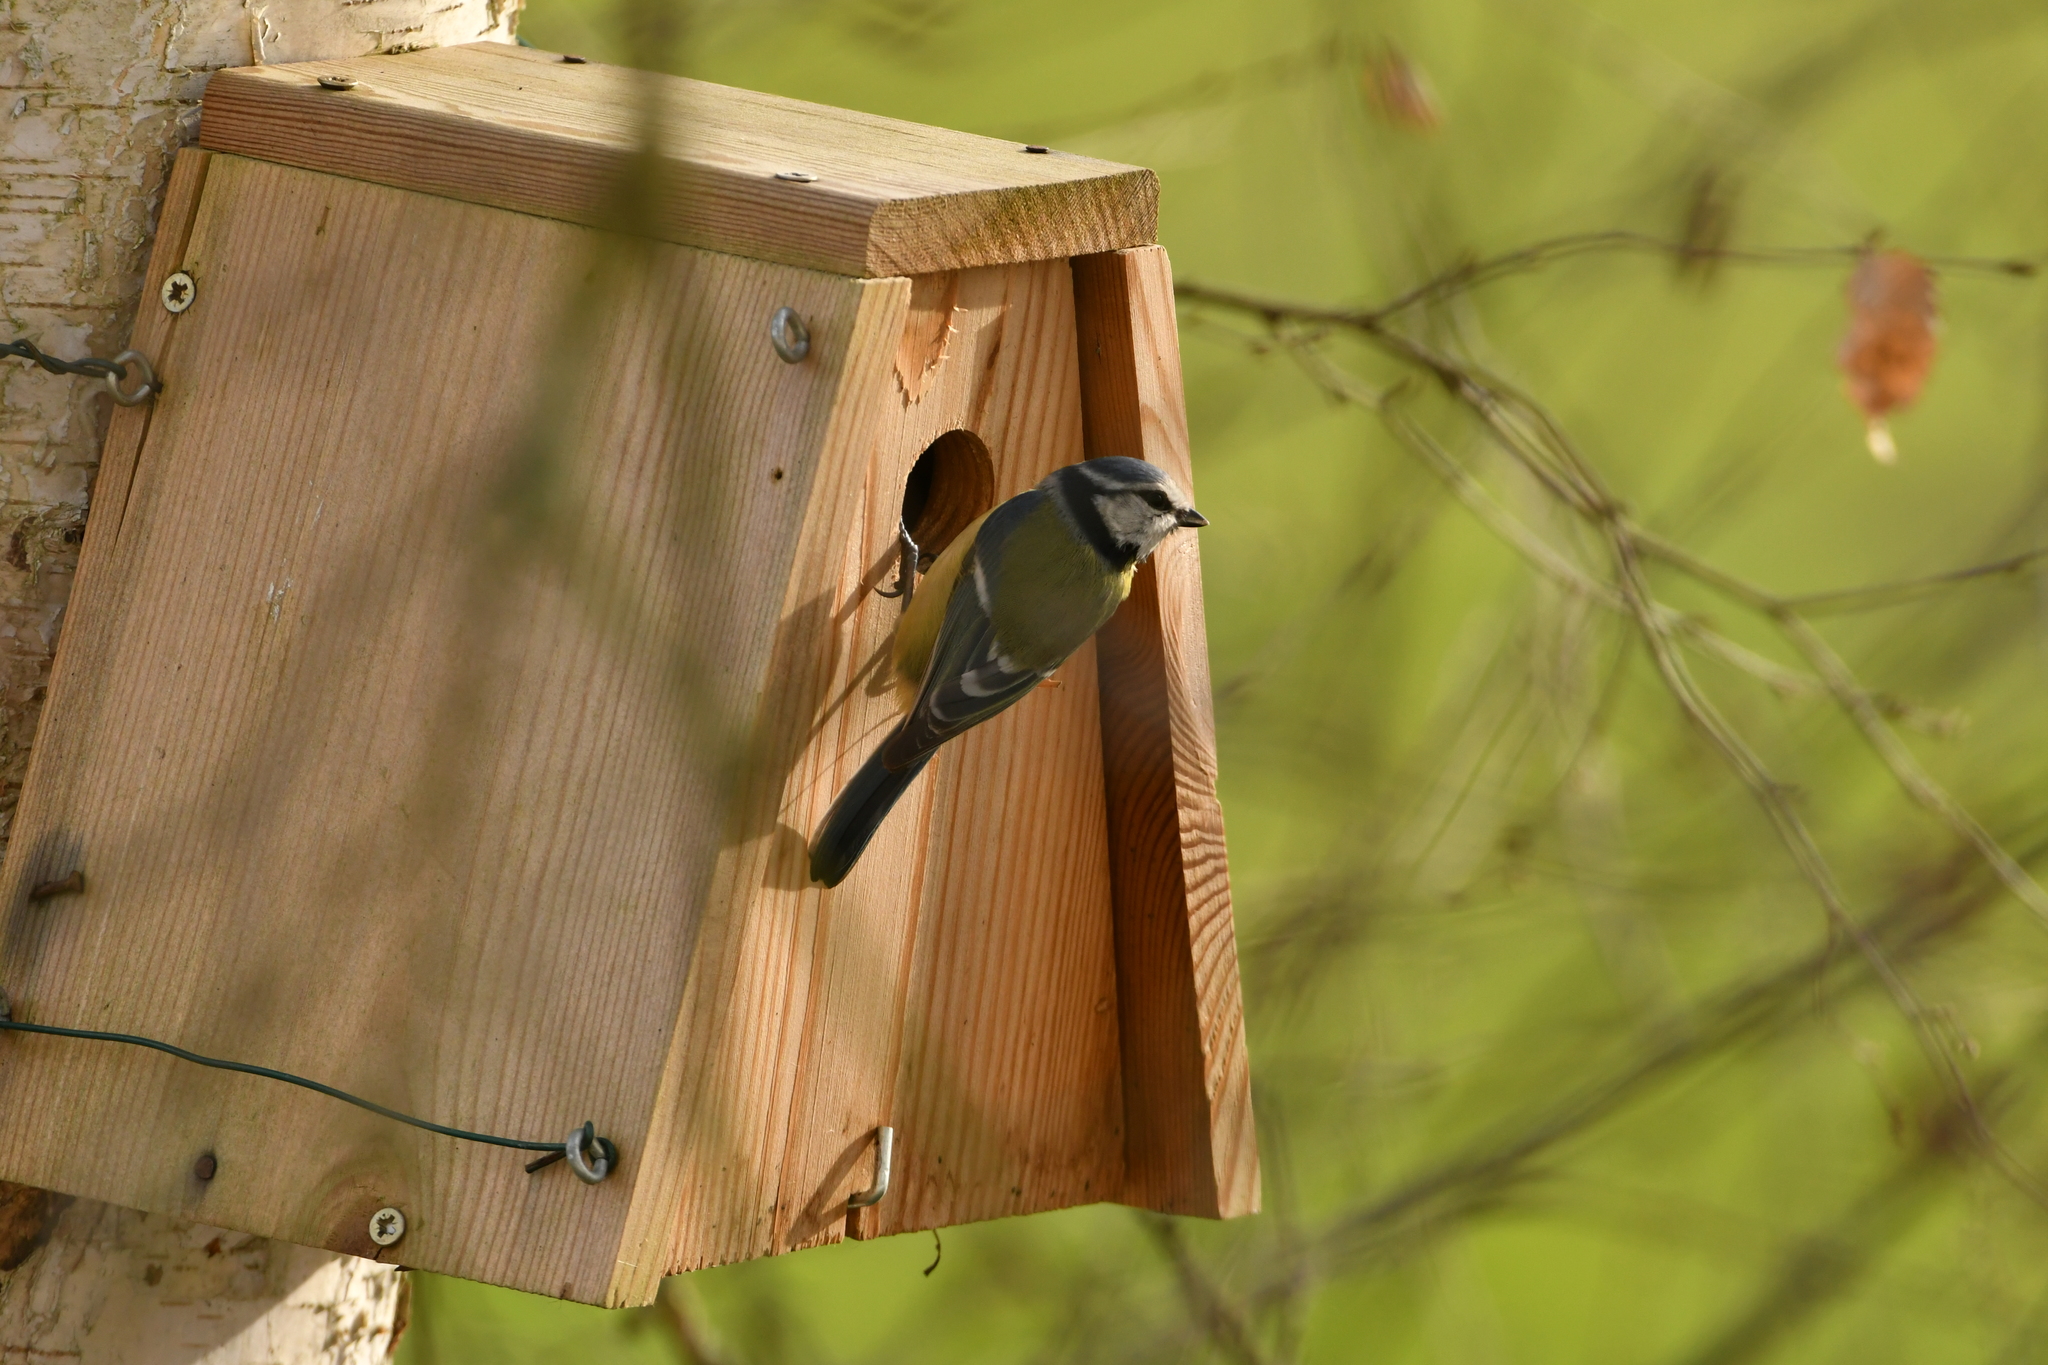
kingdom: Animalia
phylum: Chordata
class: Aves
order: Passeriformes
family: Paridae
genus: Cyanistes
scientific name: Cyanistes caeruleus
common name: Eurasian blue tit
